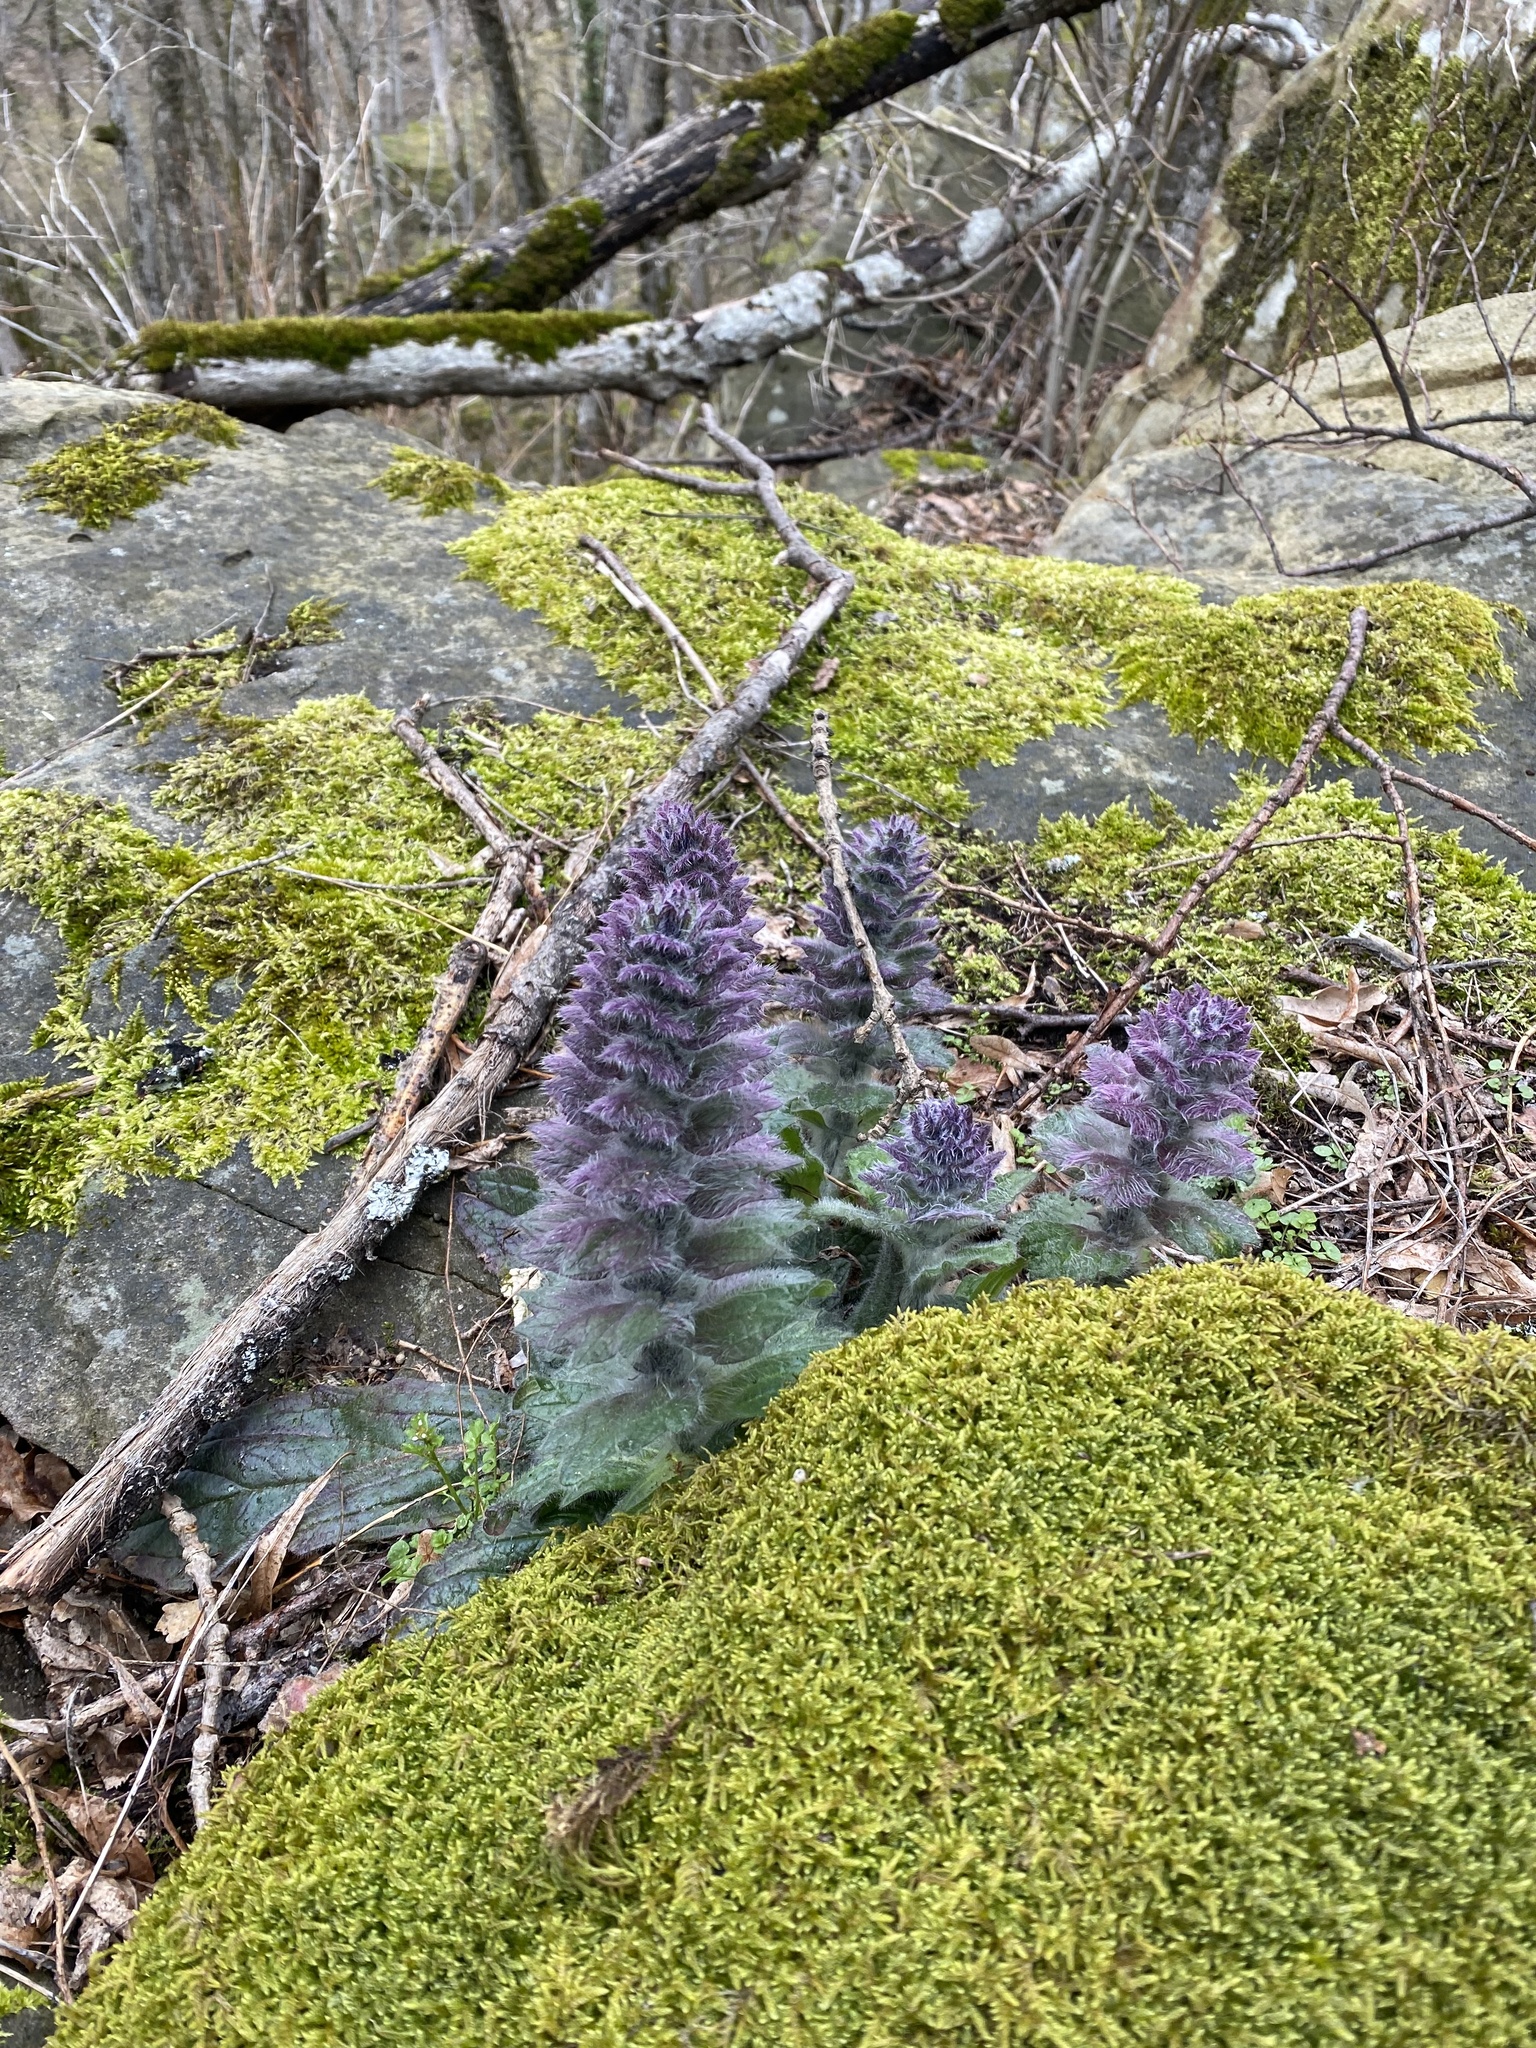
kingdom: Plantae
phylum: Tracheophyta
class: Magnoliopsida
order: Lamiales
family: Lamiaceae
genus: Ajuga
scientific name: Ajuga orientalis
